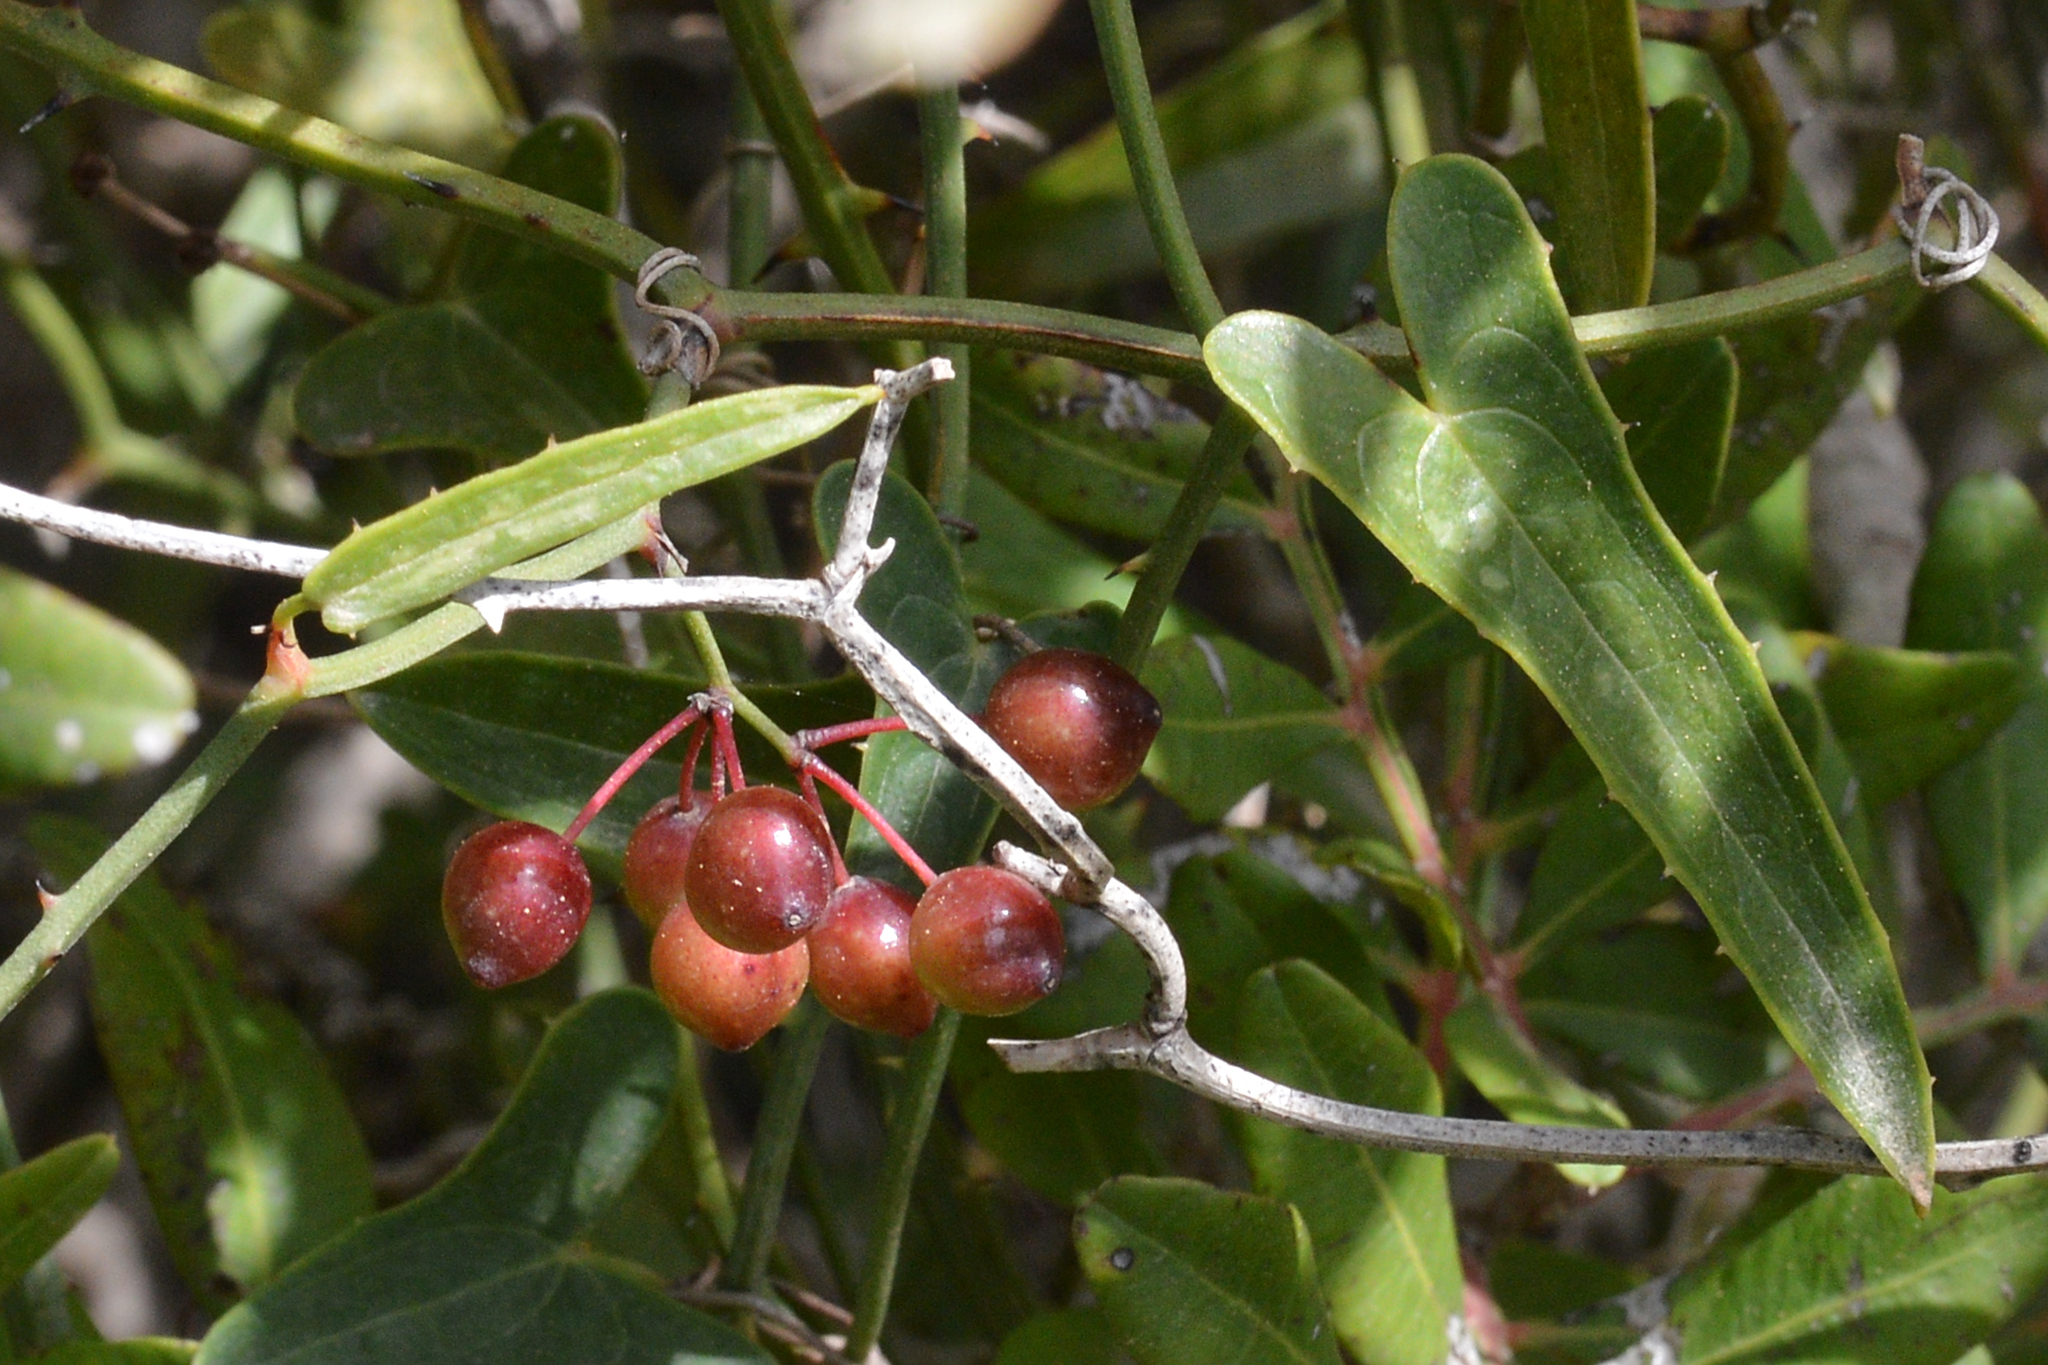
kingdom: Plantae
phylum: Tracheophyta
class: Liliopsida
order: Liliales
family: Smilacaceae
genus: Smilax
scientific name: Smilax aspera
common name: Common smilax
